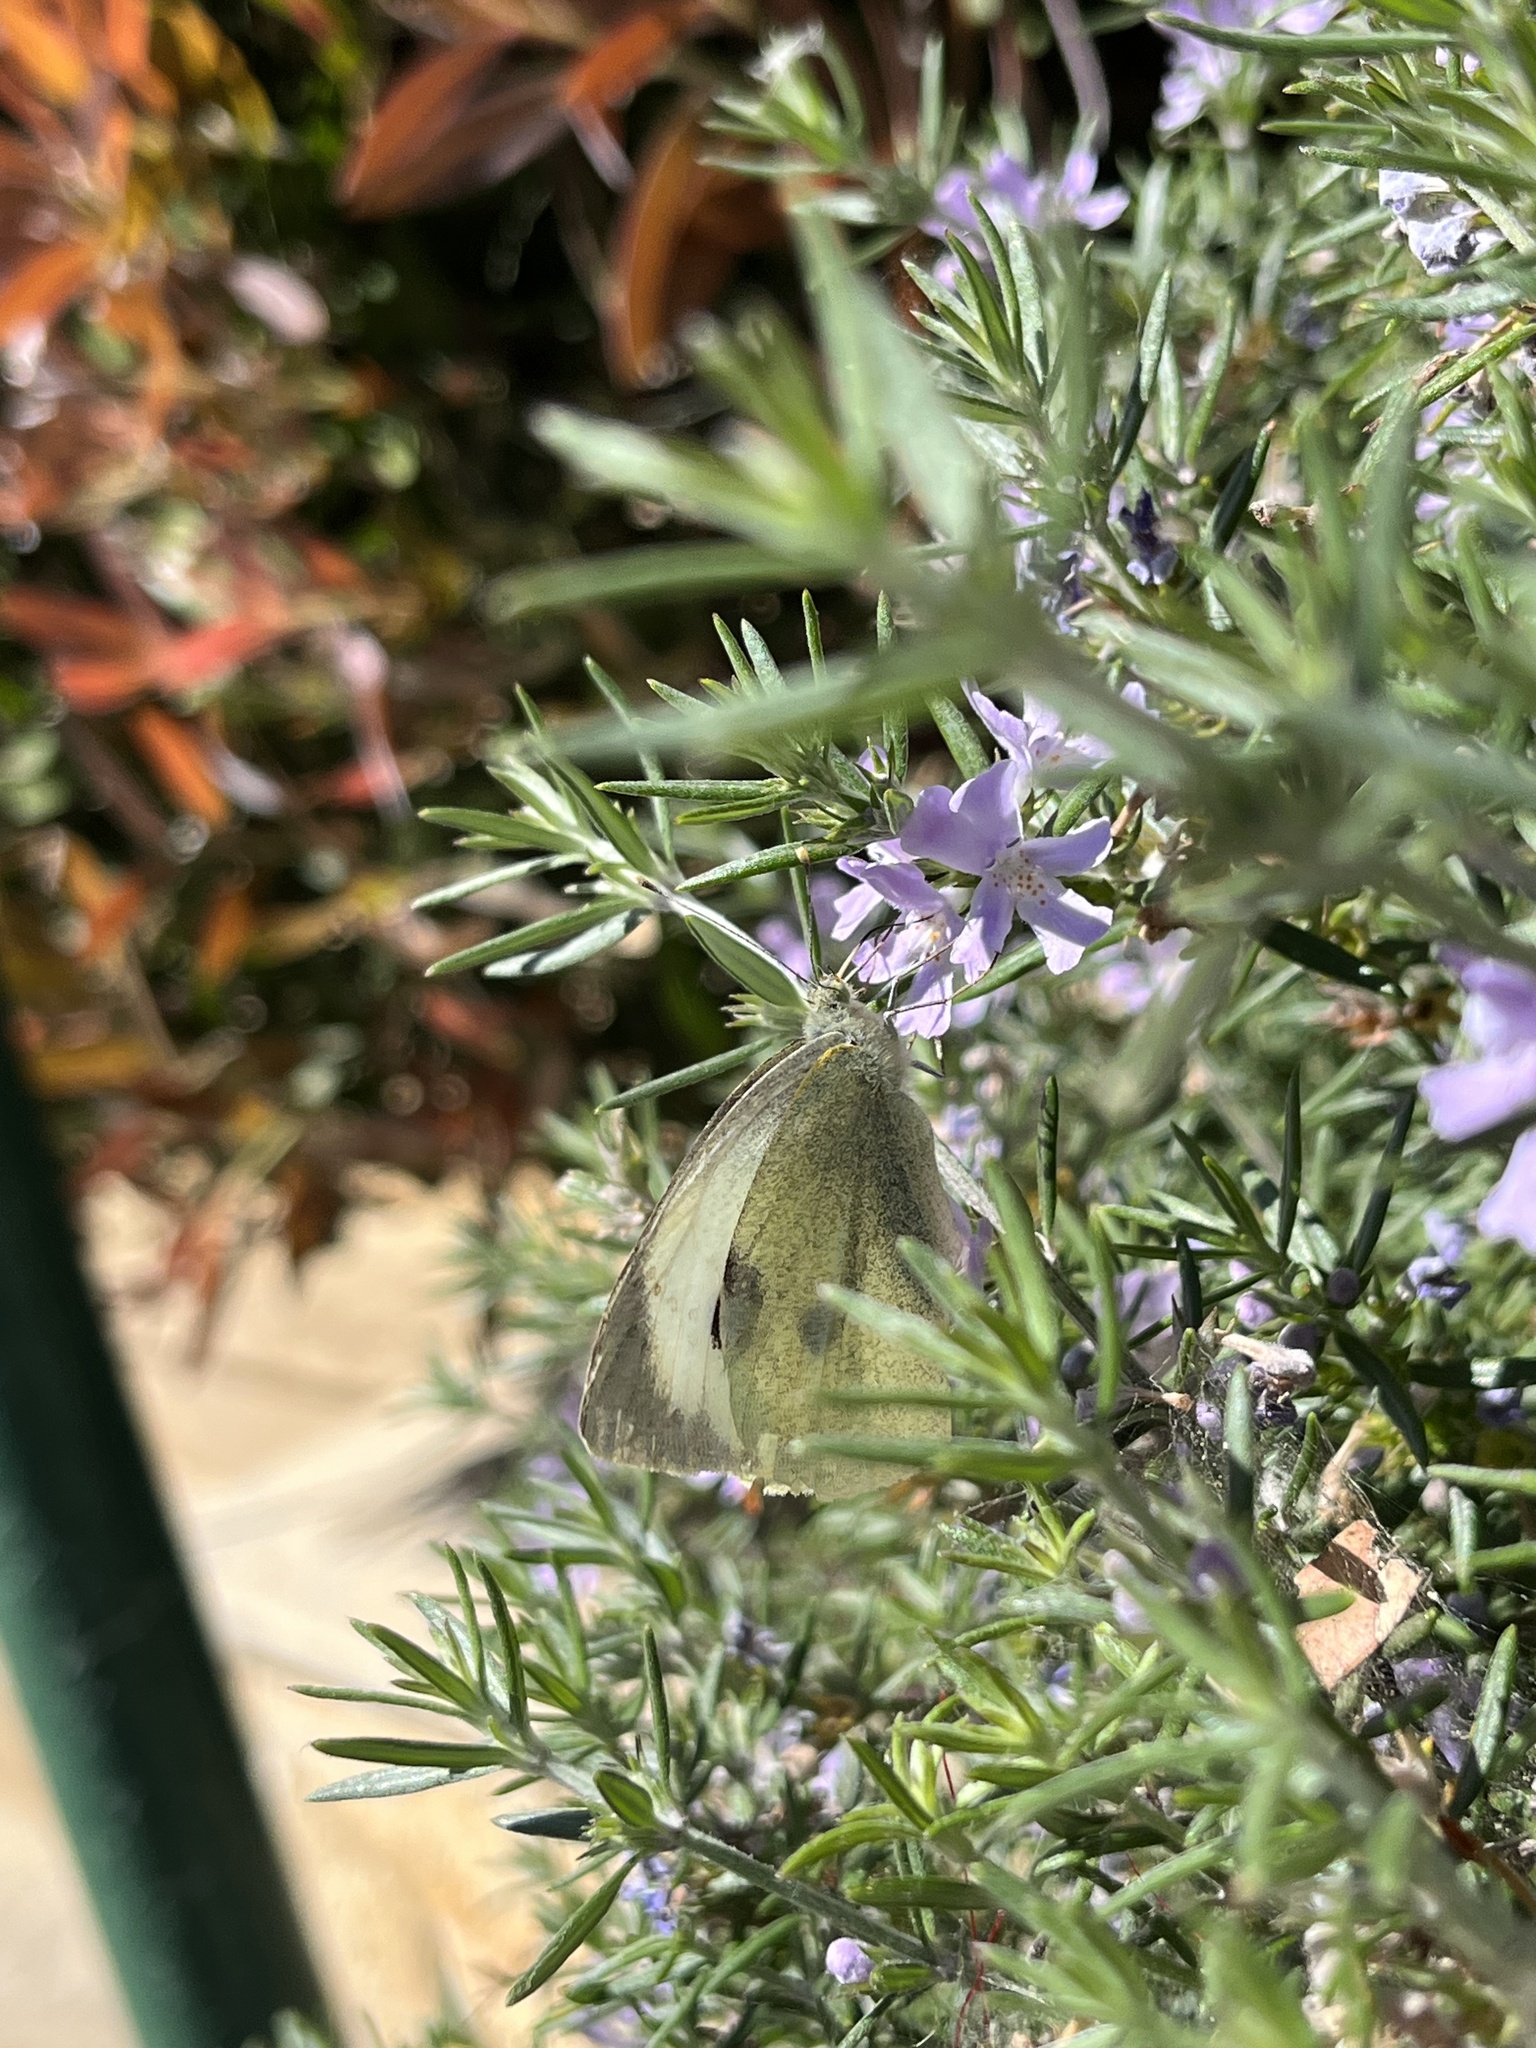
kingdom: Animalia
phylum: Arthropoda
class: Insecta
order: Lepidoptera
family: Pieridae
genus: Pieris
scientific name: Pieris brassicae
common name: Large white
